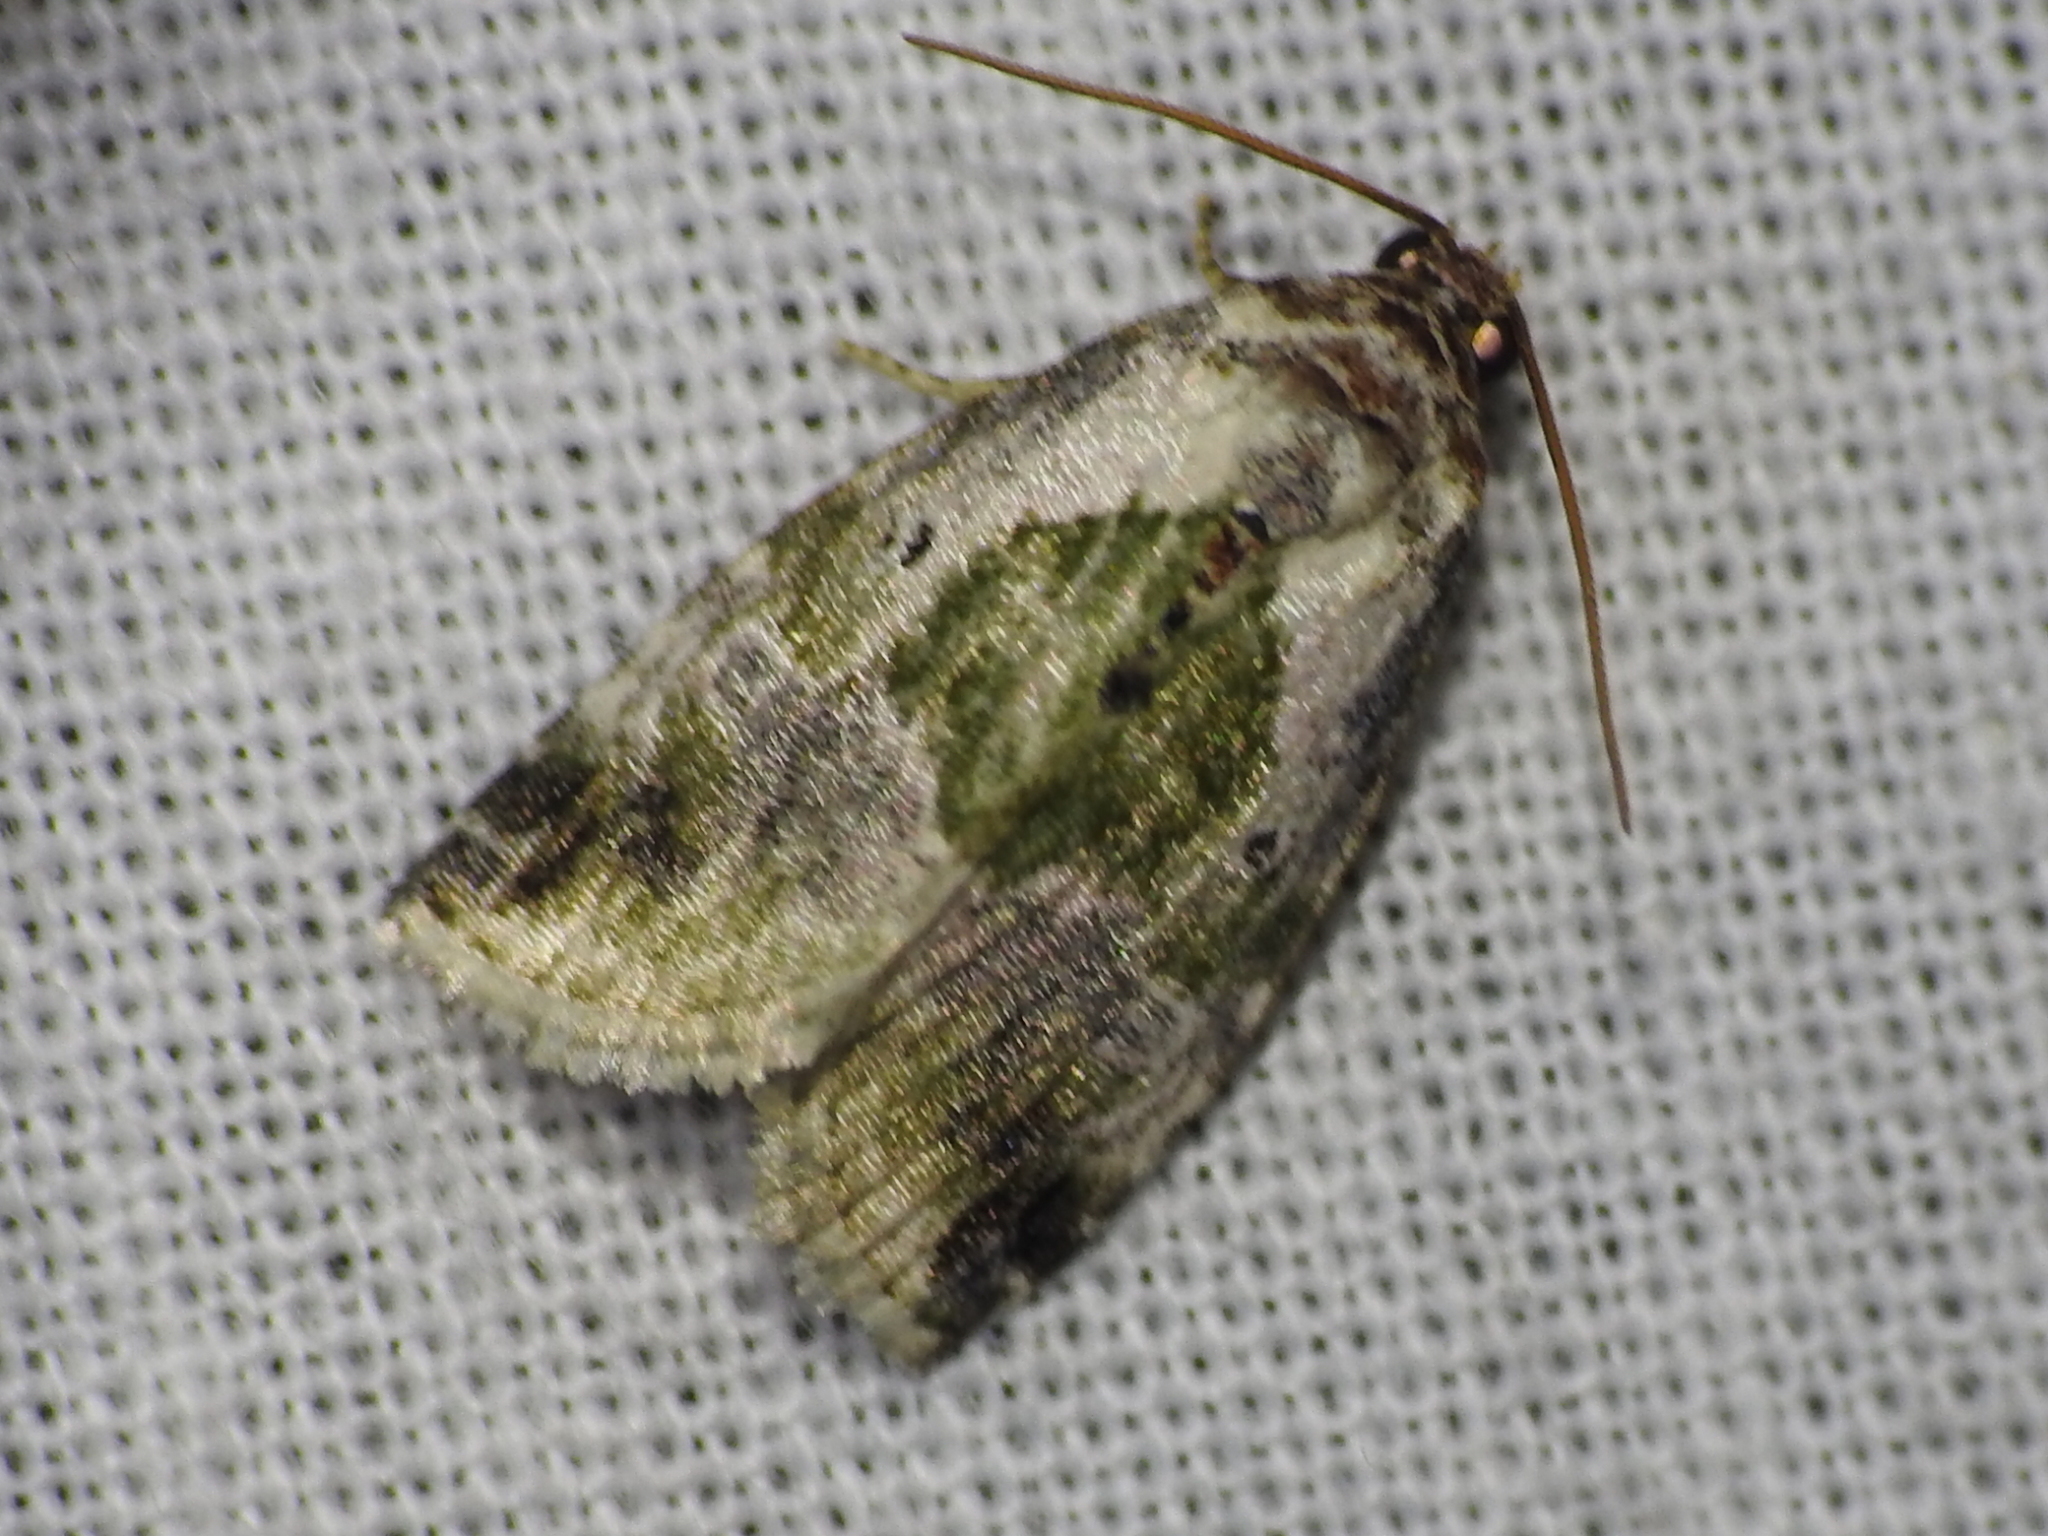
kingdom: Animalia
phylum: Arthropoda
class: Insecta
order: Lepidoptera
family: Noctuidae
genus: Maliattha
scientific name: Maliattha synochitis
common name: Black-dotted glyph
